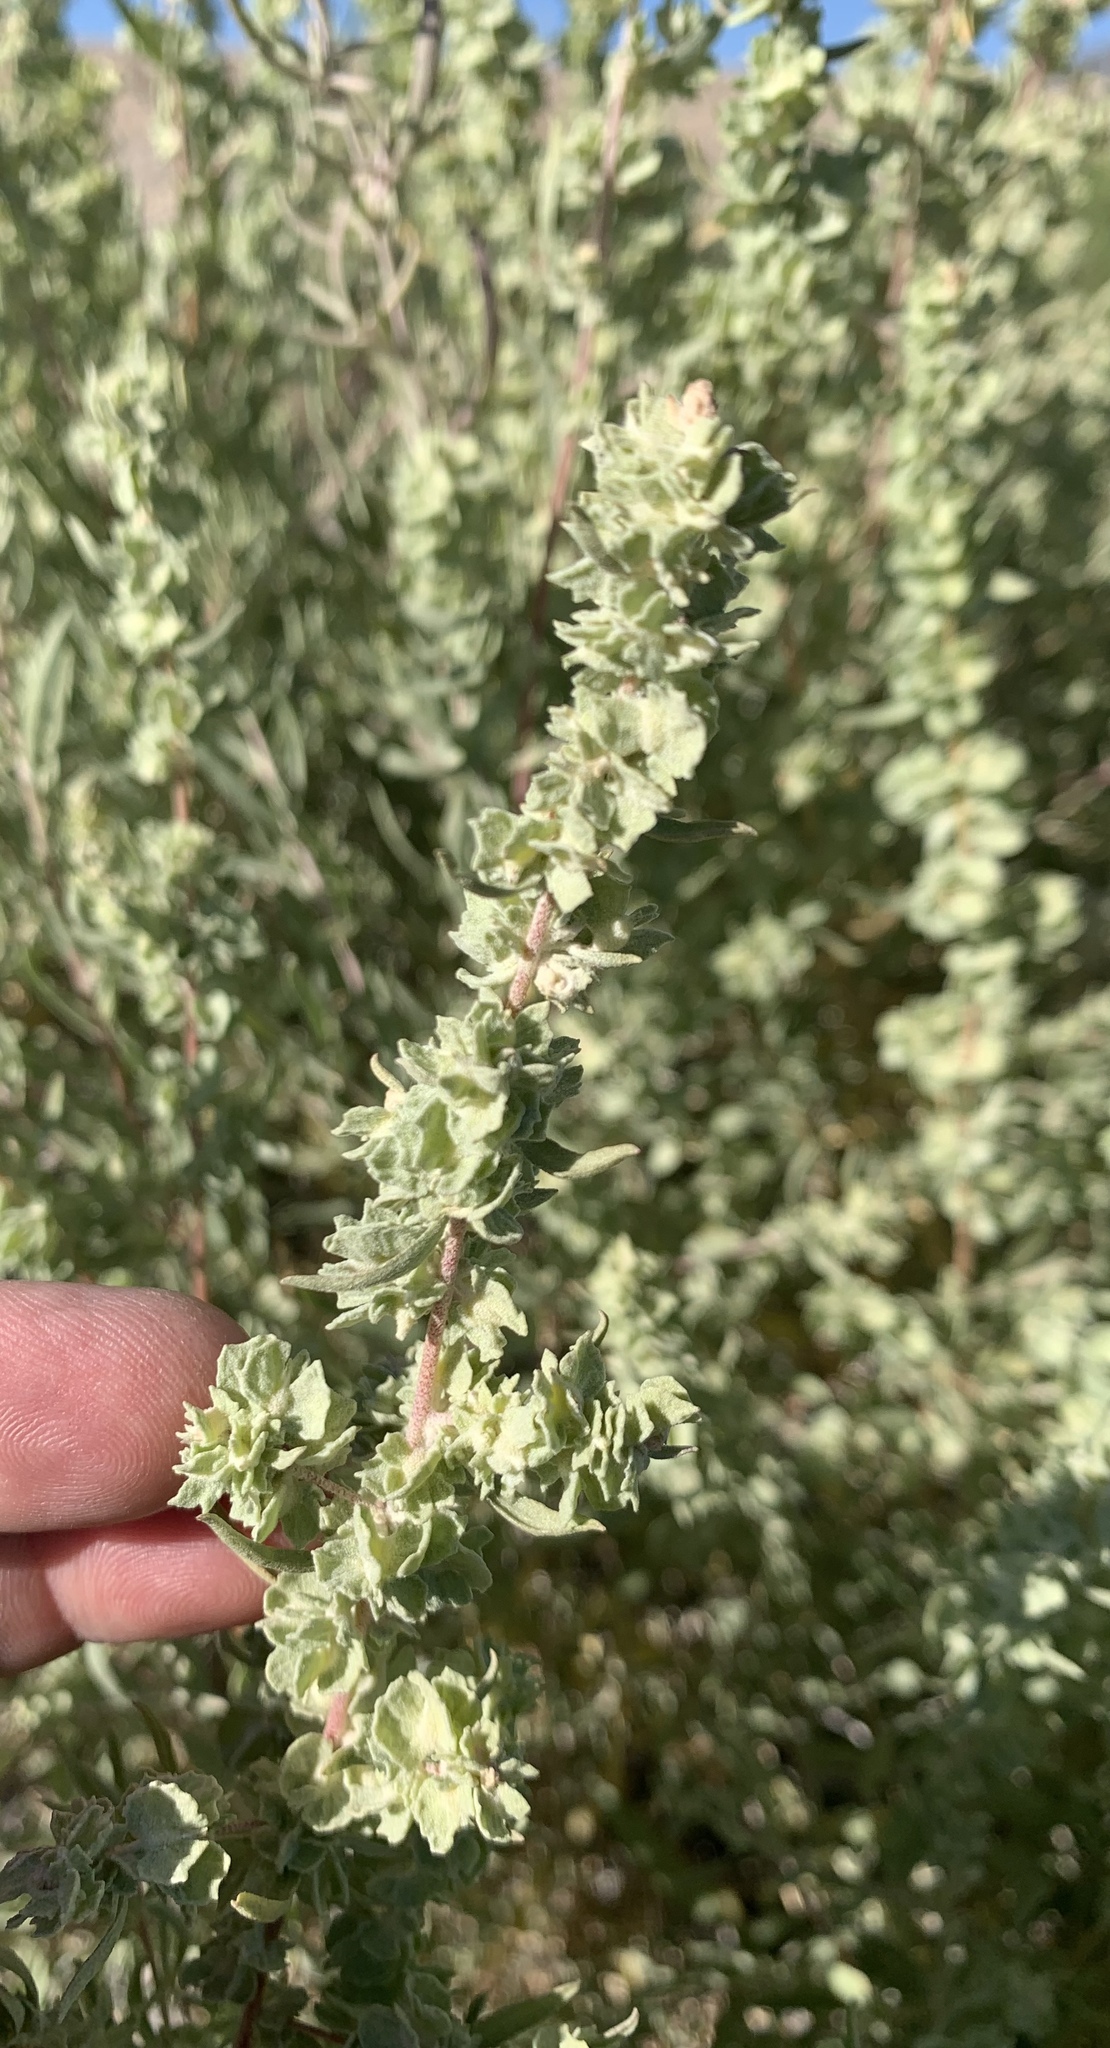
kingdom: Plantae
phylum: Tracheophyta
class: Magnoliopsida
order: Caryophyllales
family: Amaranthaceae
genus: Atriplex
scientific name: Atriplex canescens
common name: Four-wing saltbush
